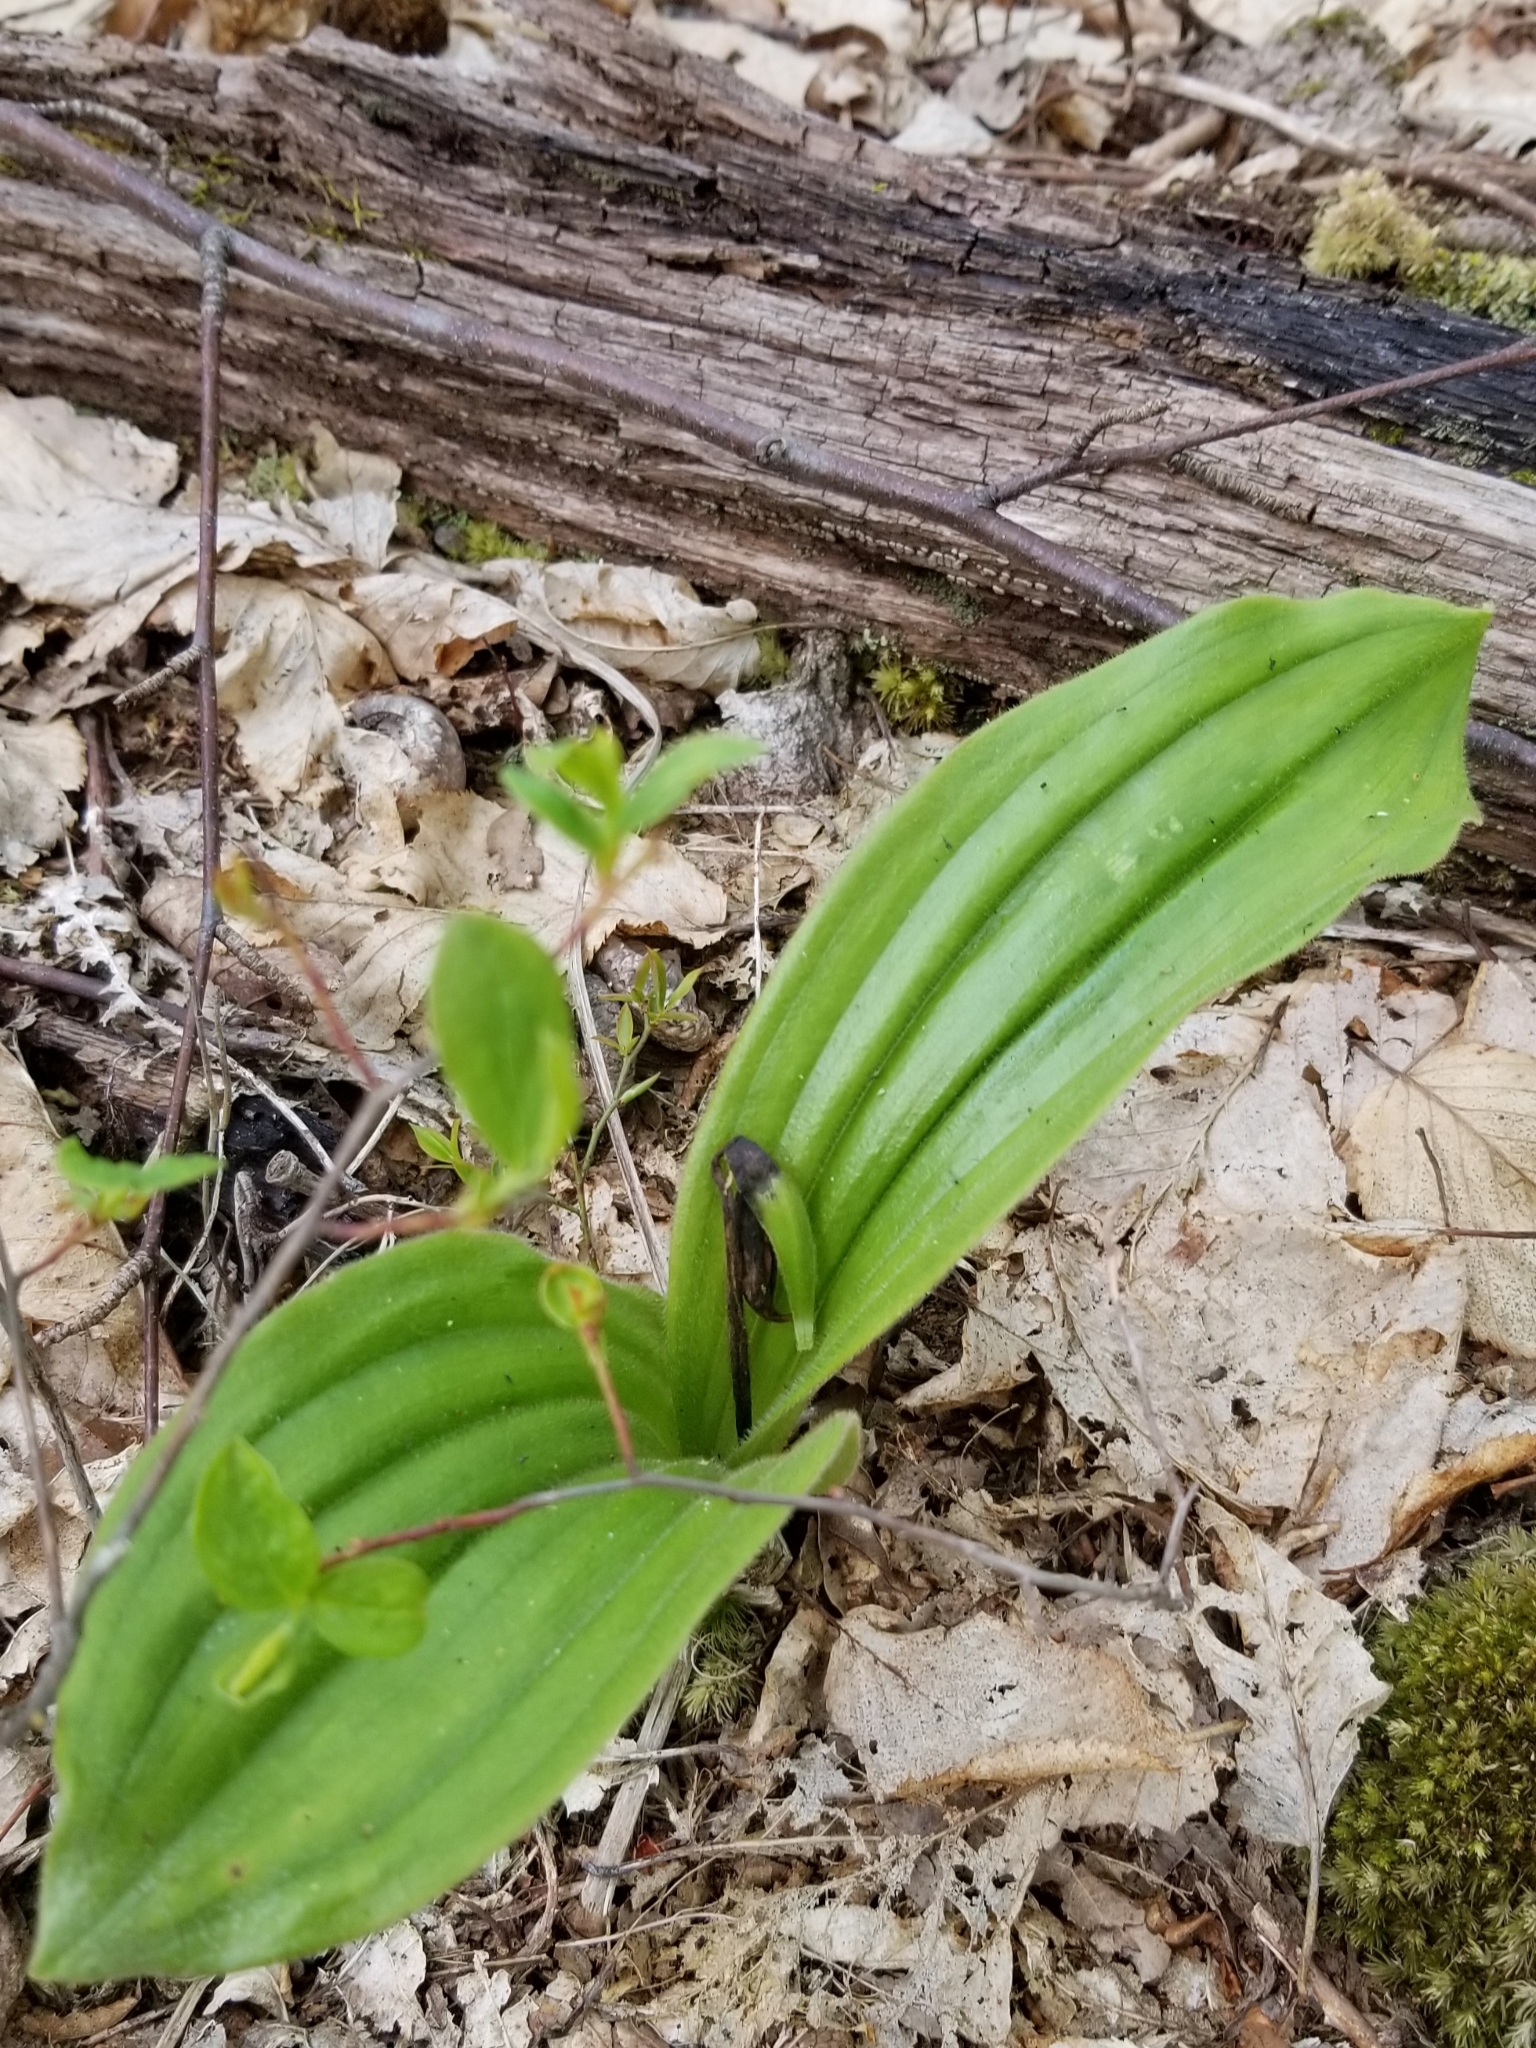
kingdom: Plantae
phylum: Tracheophyta
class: Liliopsida
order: Asparagales
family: Orchidaceae
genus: Cypripedium
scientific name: Cypripedium acaule
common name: Pink lady's-slipper
